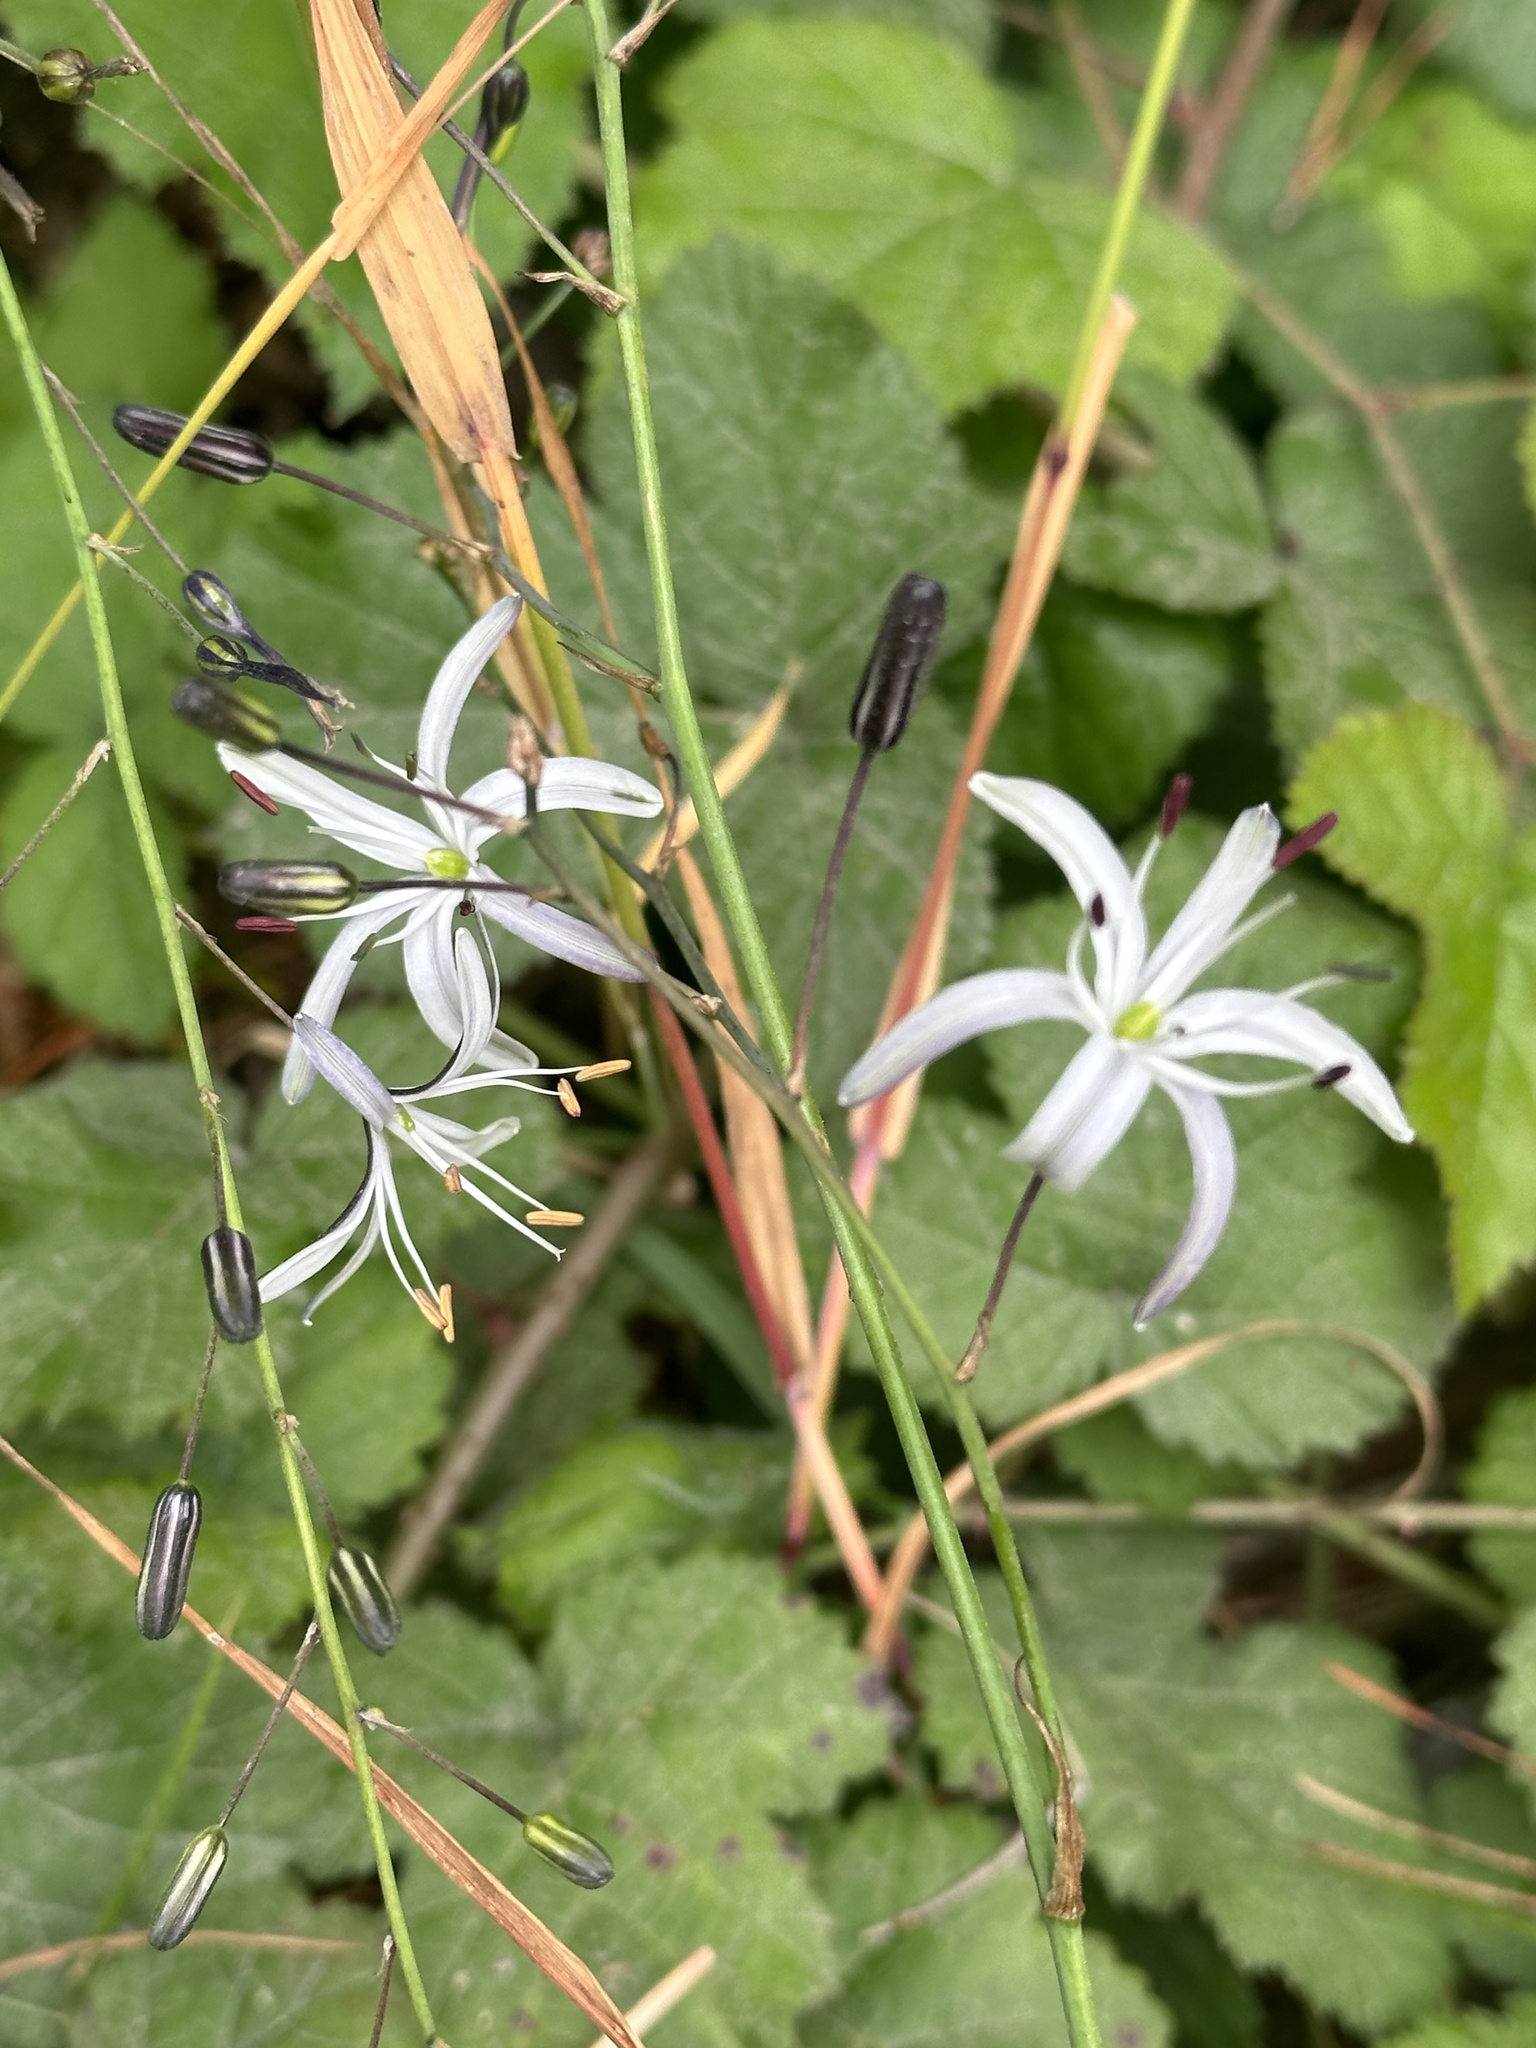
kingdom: Plantae
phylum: Tracheophyta
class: Liliopsida
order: Asparagales
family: Asparagaceae
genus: Chlorogalum
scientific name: Chlorogalum pomeridianum
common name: Amole
